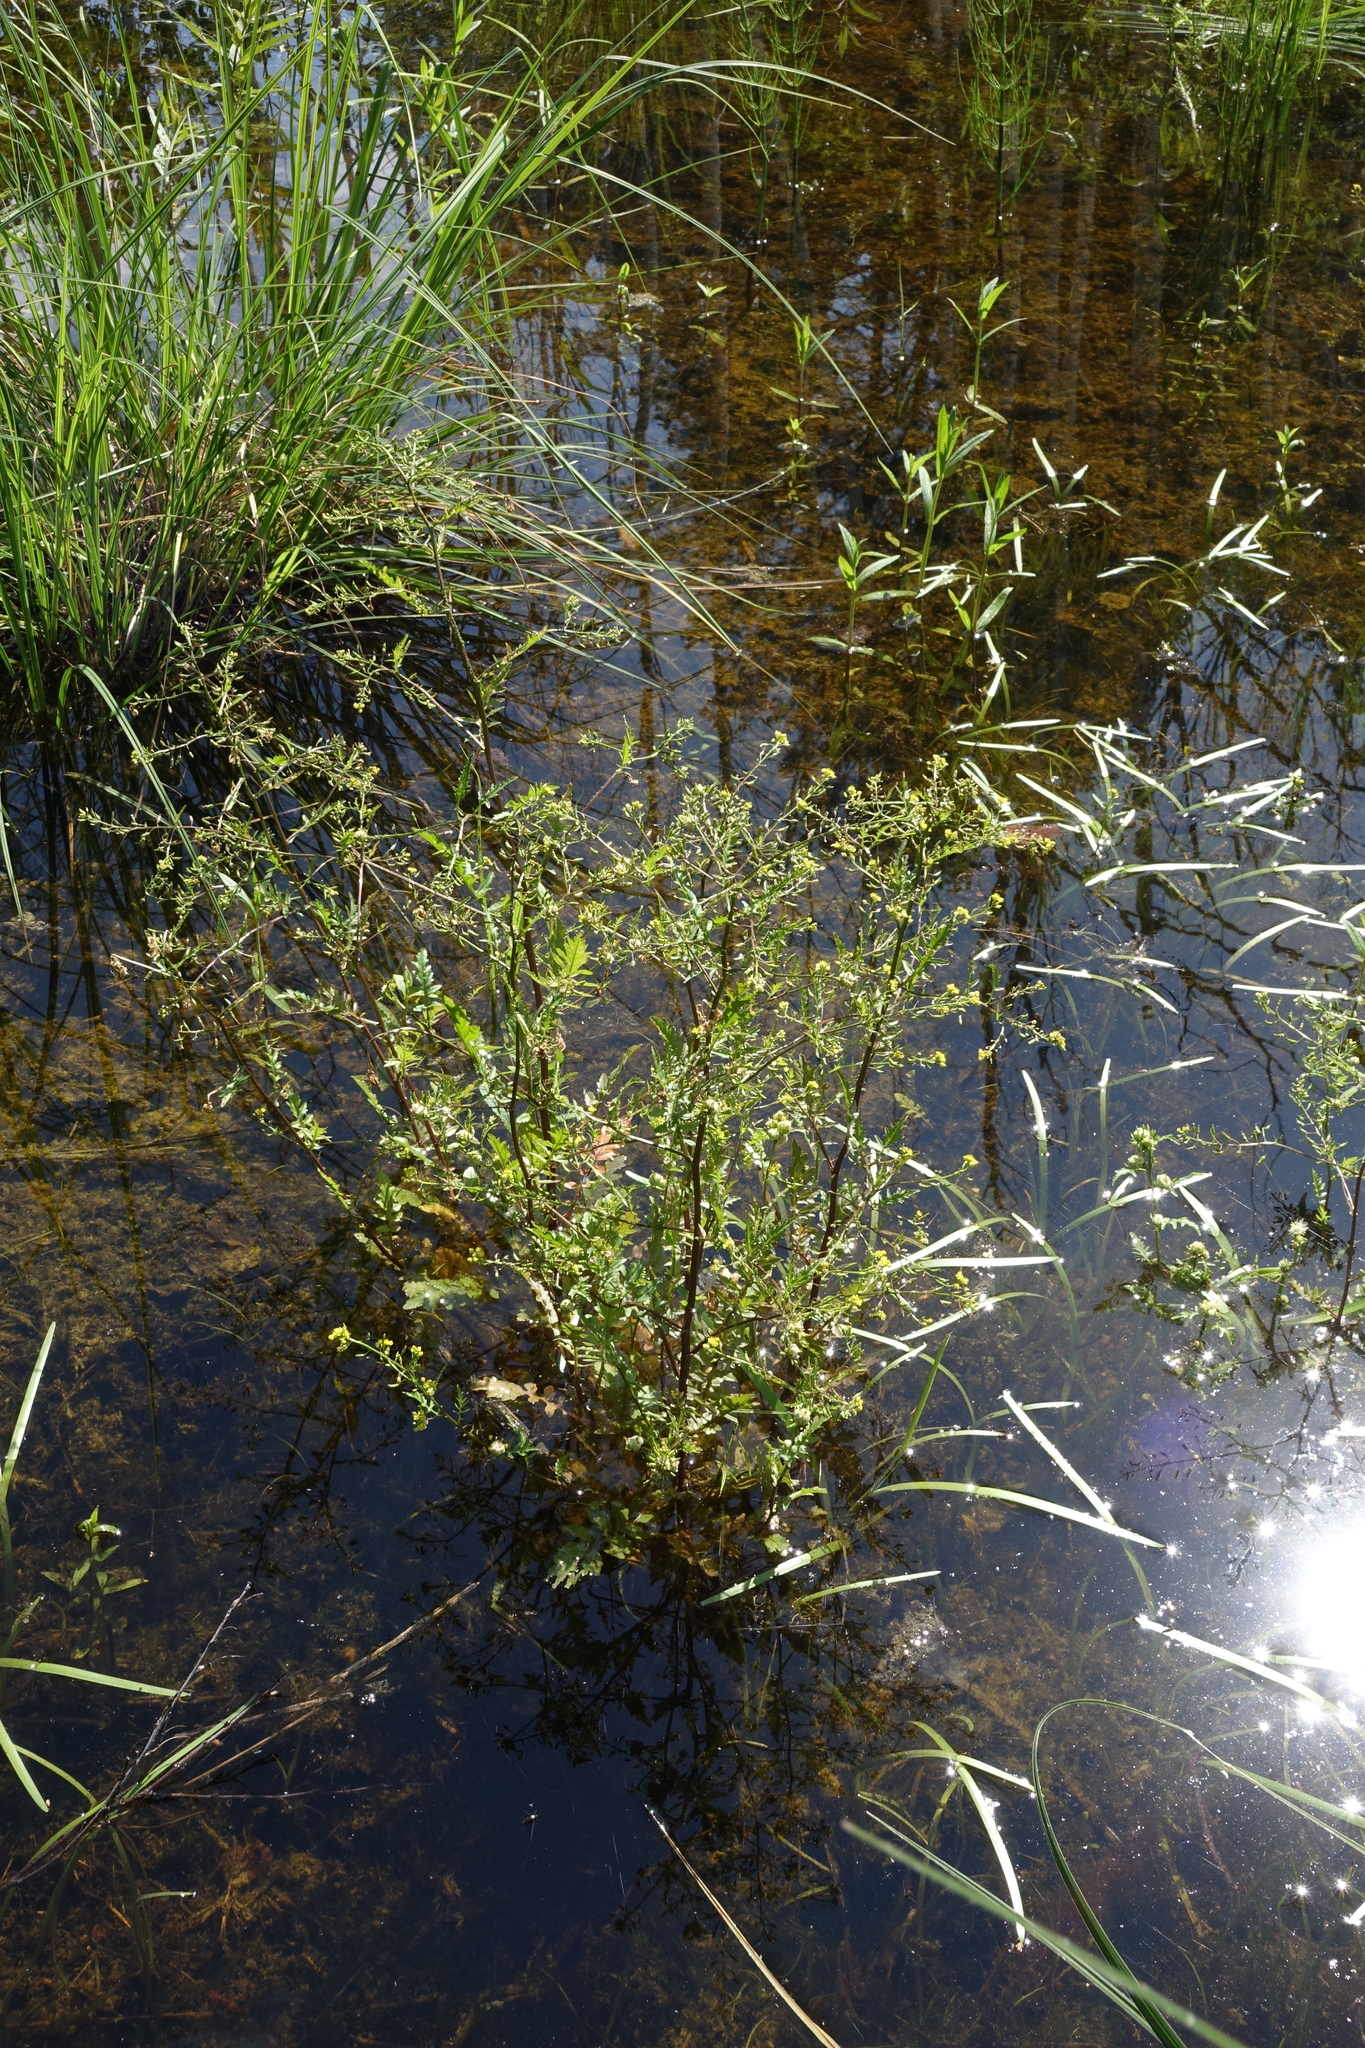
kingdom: Plantae
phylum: Tracheophyta
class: Magnoliopsida
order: Brassicales
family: Brassicaceae
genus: Rorippa
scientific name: Rorippa palustris
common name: Marsh yellow-cress
